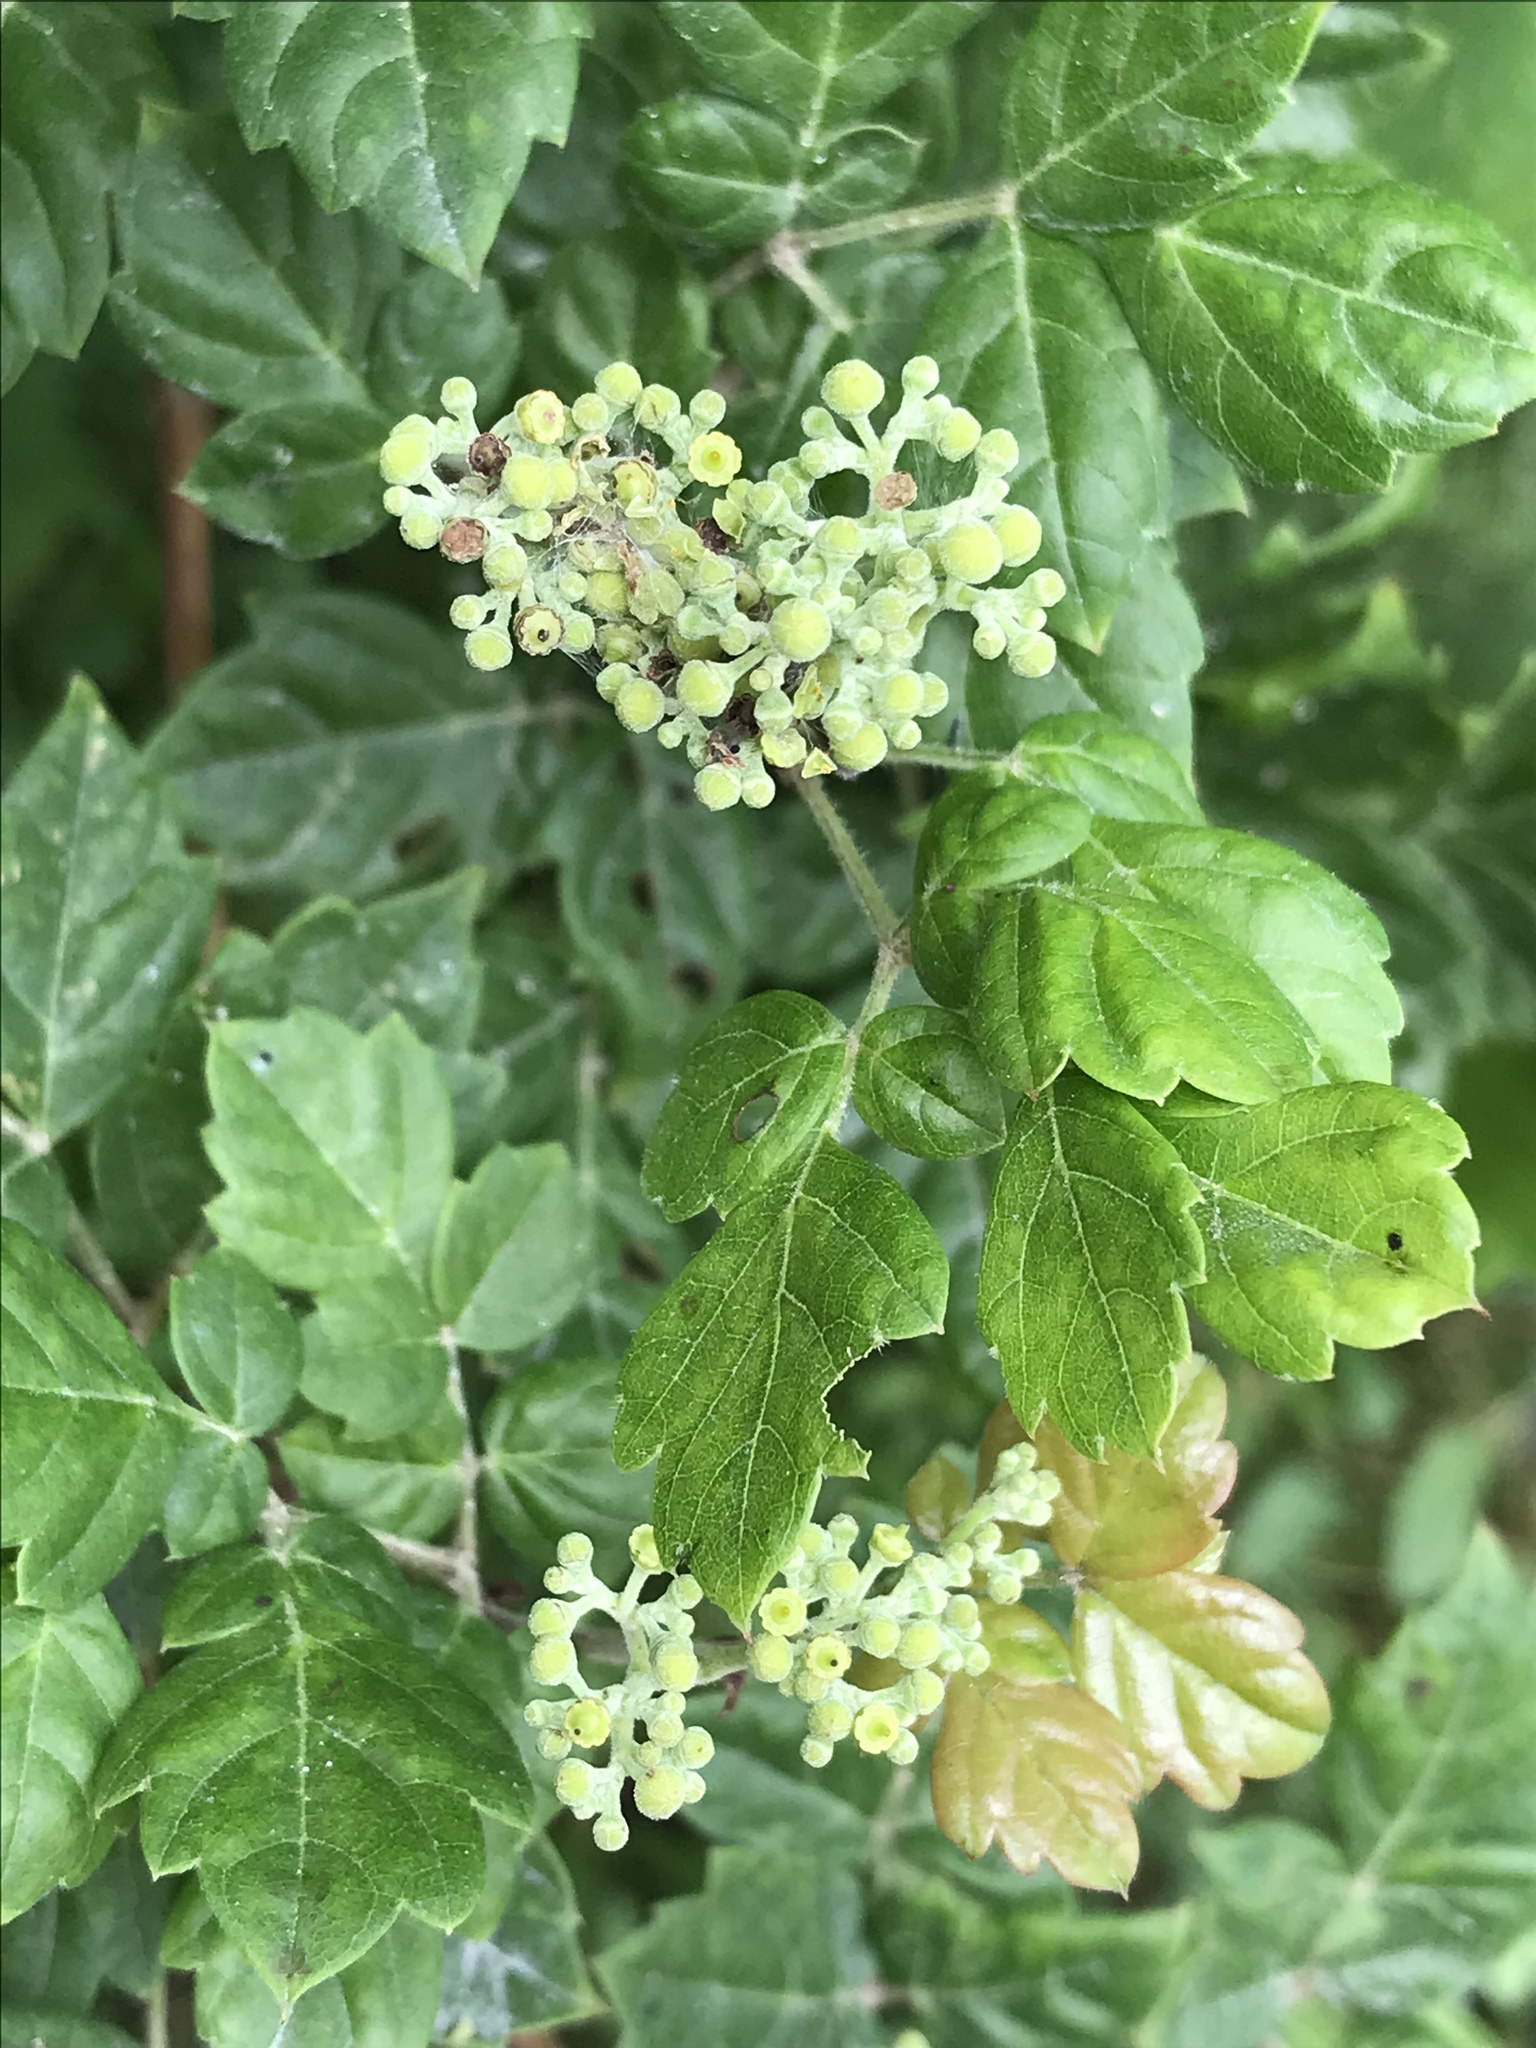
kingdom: Plantae
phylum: Tracheophyta
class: Magnoliopsida
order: Vitales
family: Vitaceae
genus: Nekemias
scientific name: Nekemias arborea
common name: Peppervine
